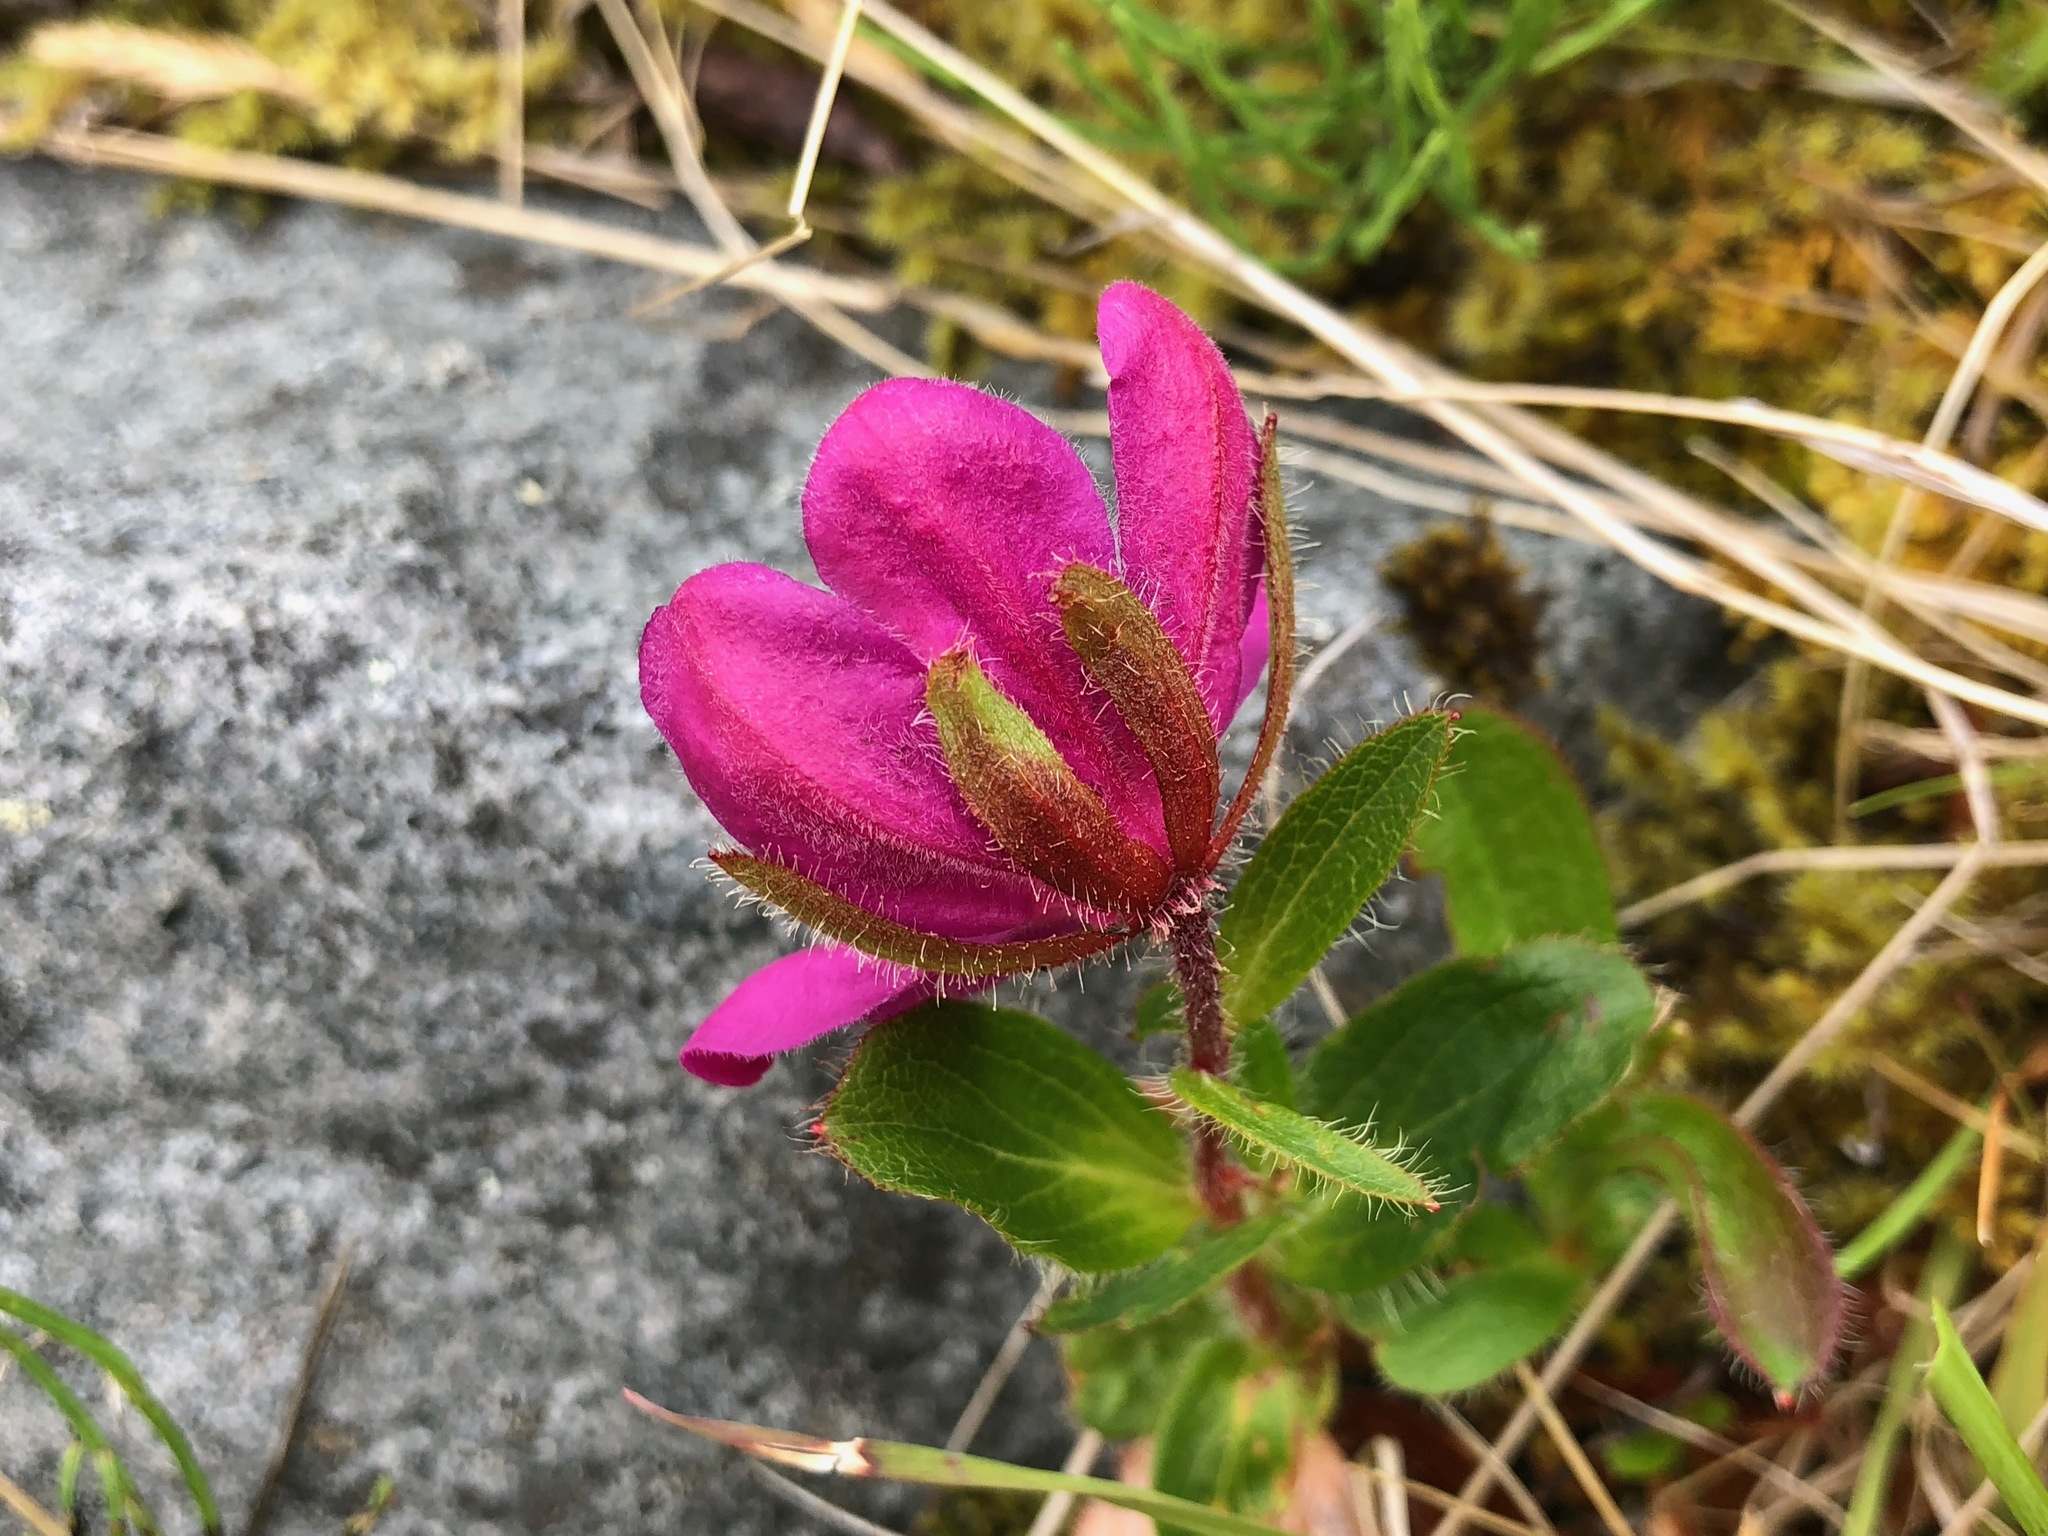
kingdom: Plantae
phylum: Tracheophyta
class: Magnoliopsida
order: Ericales
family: Ericaceae
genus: Rhododendron
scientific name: Rhododendron camtschaticum
